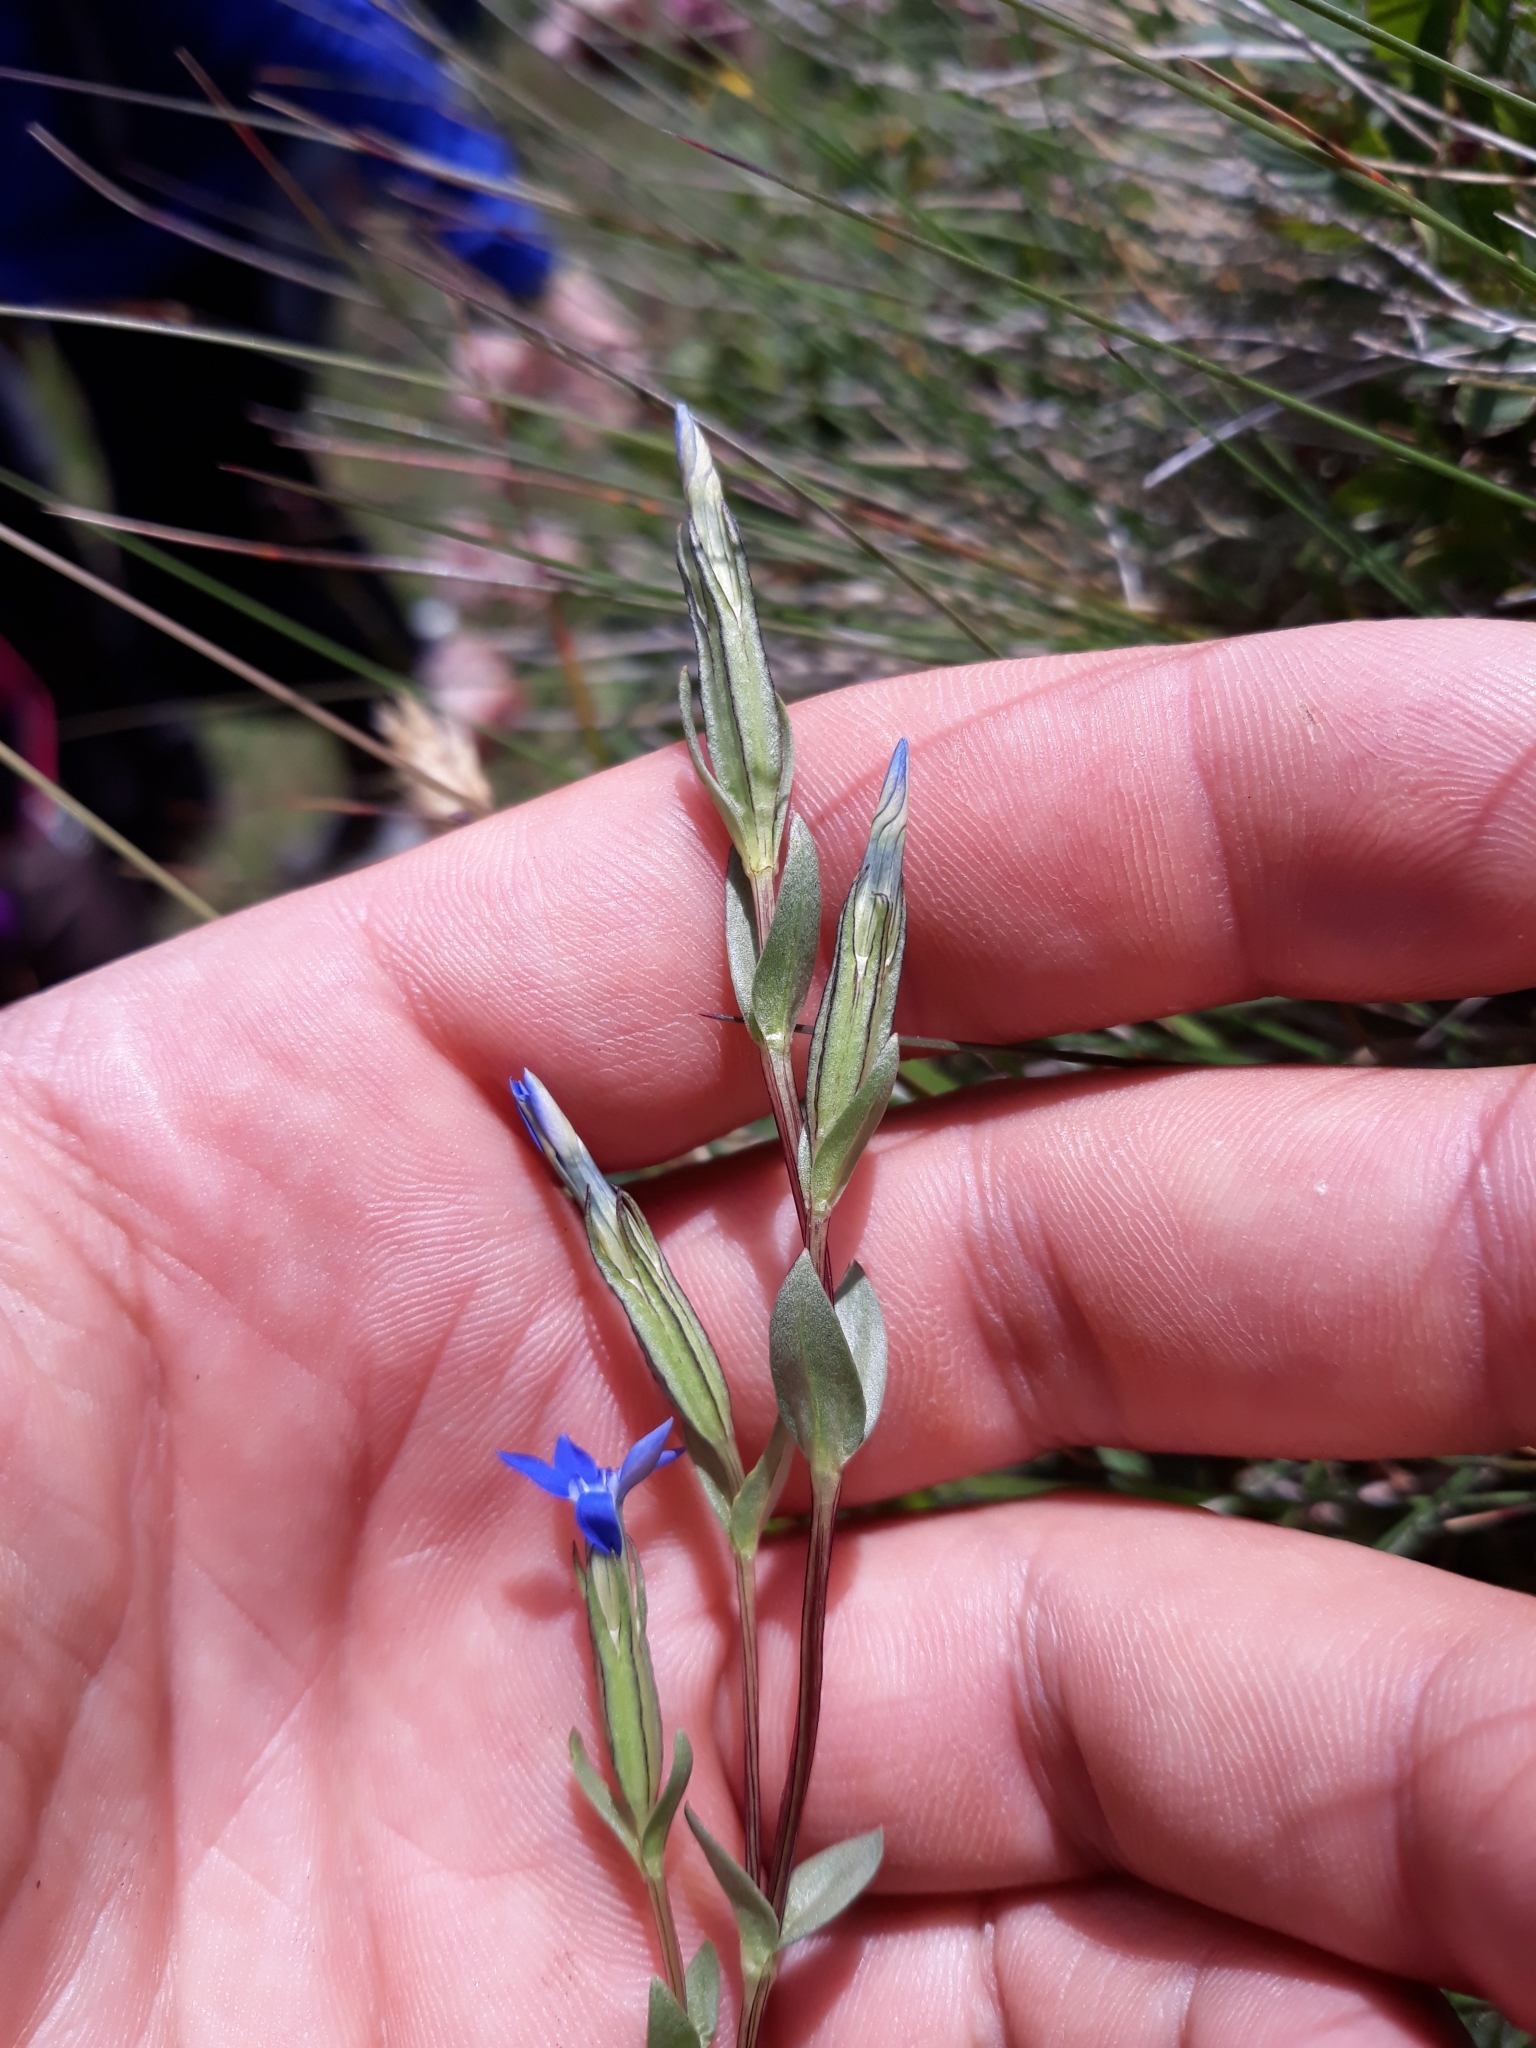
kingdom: Plantae
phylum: Tracheophyta
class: Magnoliopsida
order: Gentianales
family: Gentianaceae
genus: Gentiana
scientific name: Gentiana nivalis
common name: Alpine gentian
